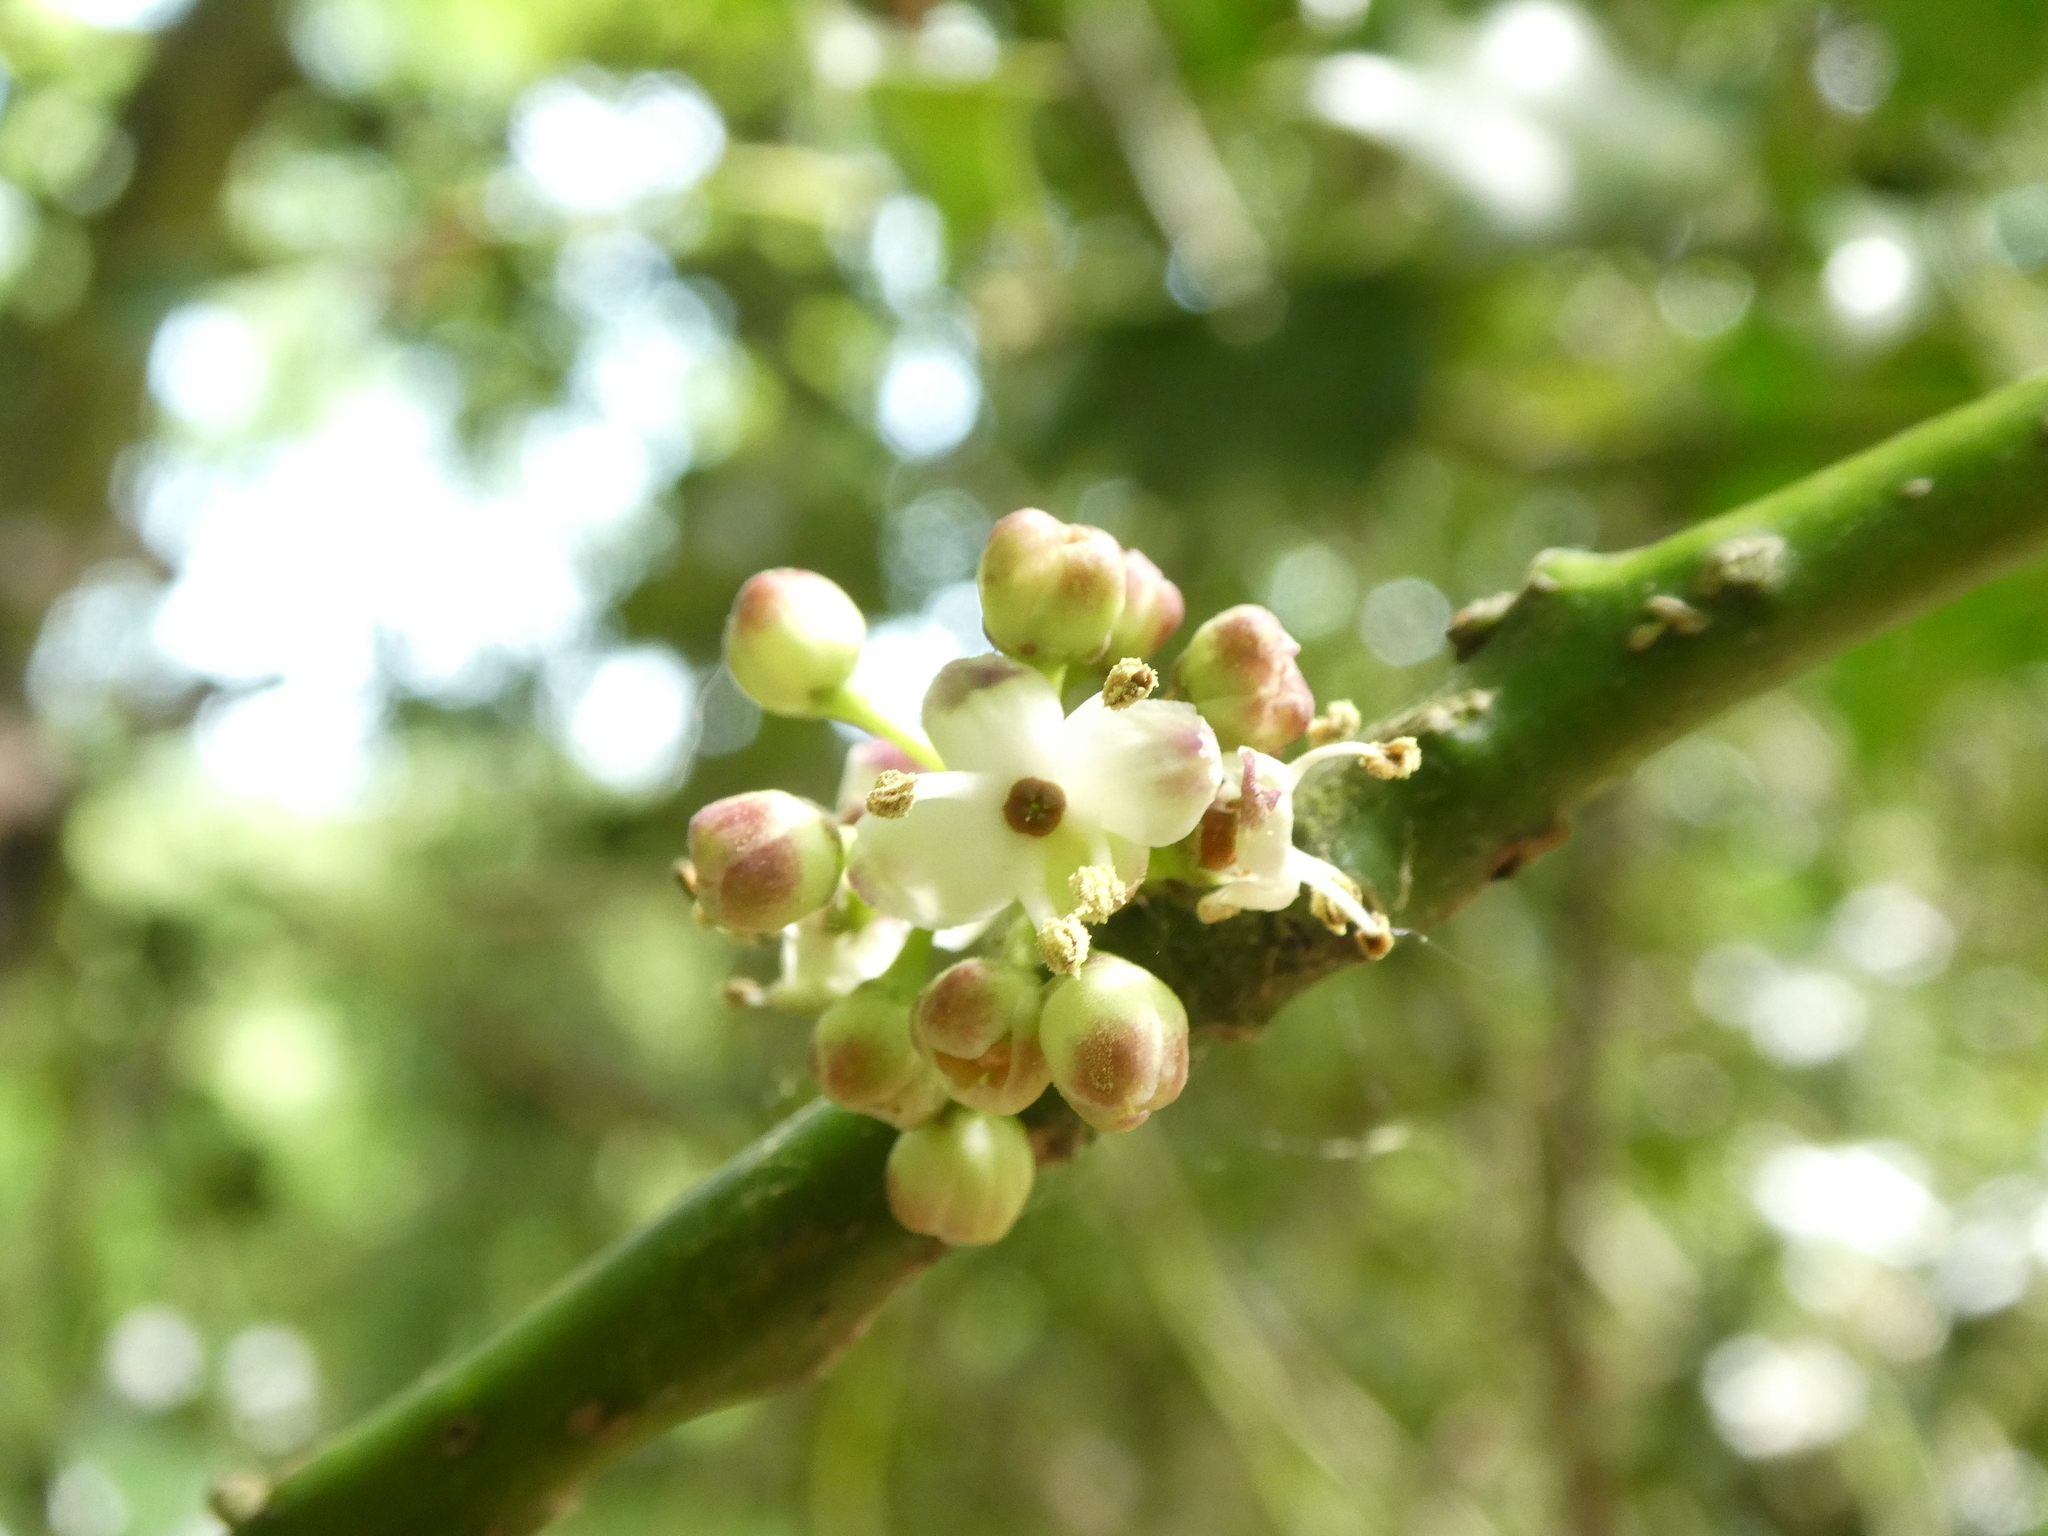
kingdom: Plantae
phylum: Tracheophyta
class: Magnoliopsida
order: Aquifoliales
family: Aquifoliaceae
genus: Ilex
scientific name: Ilex aquifolium
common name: English holly
